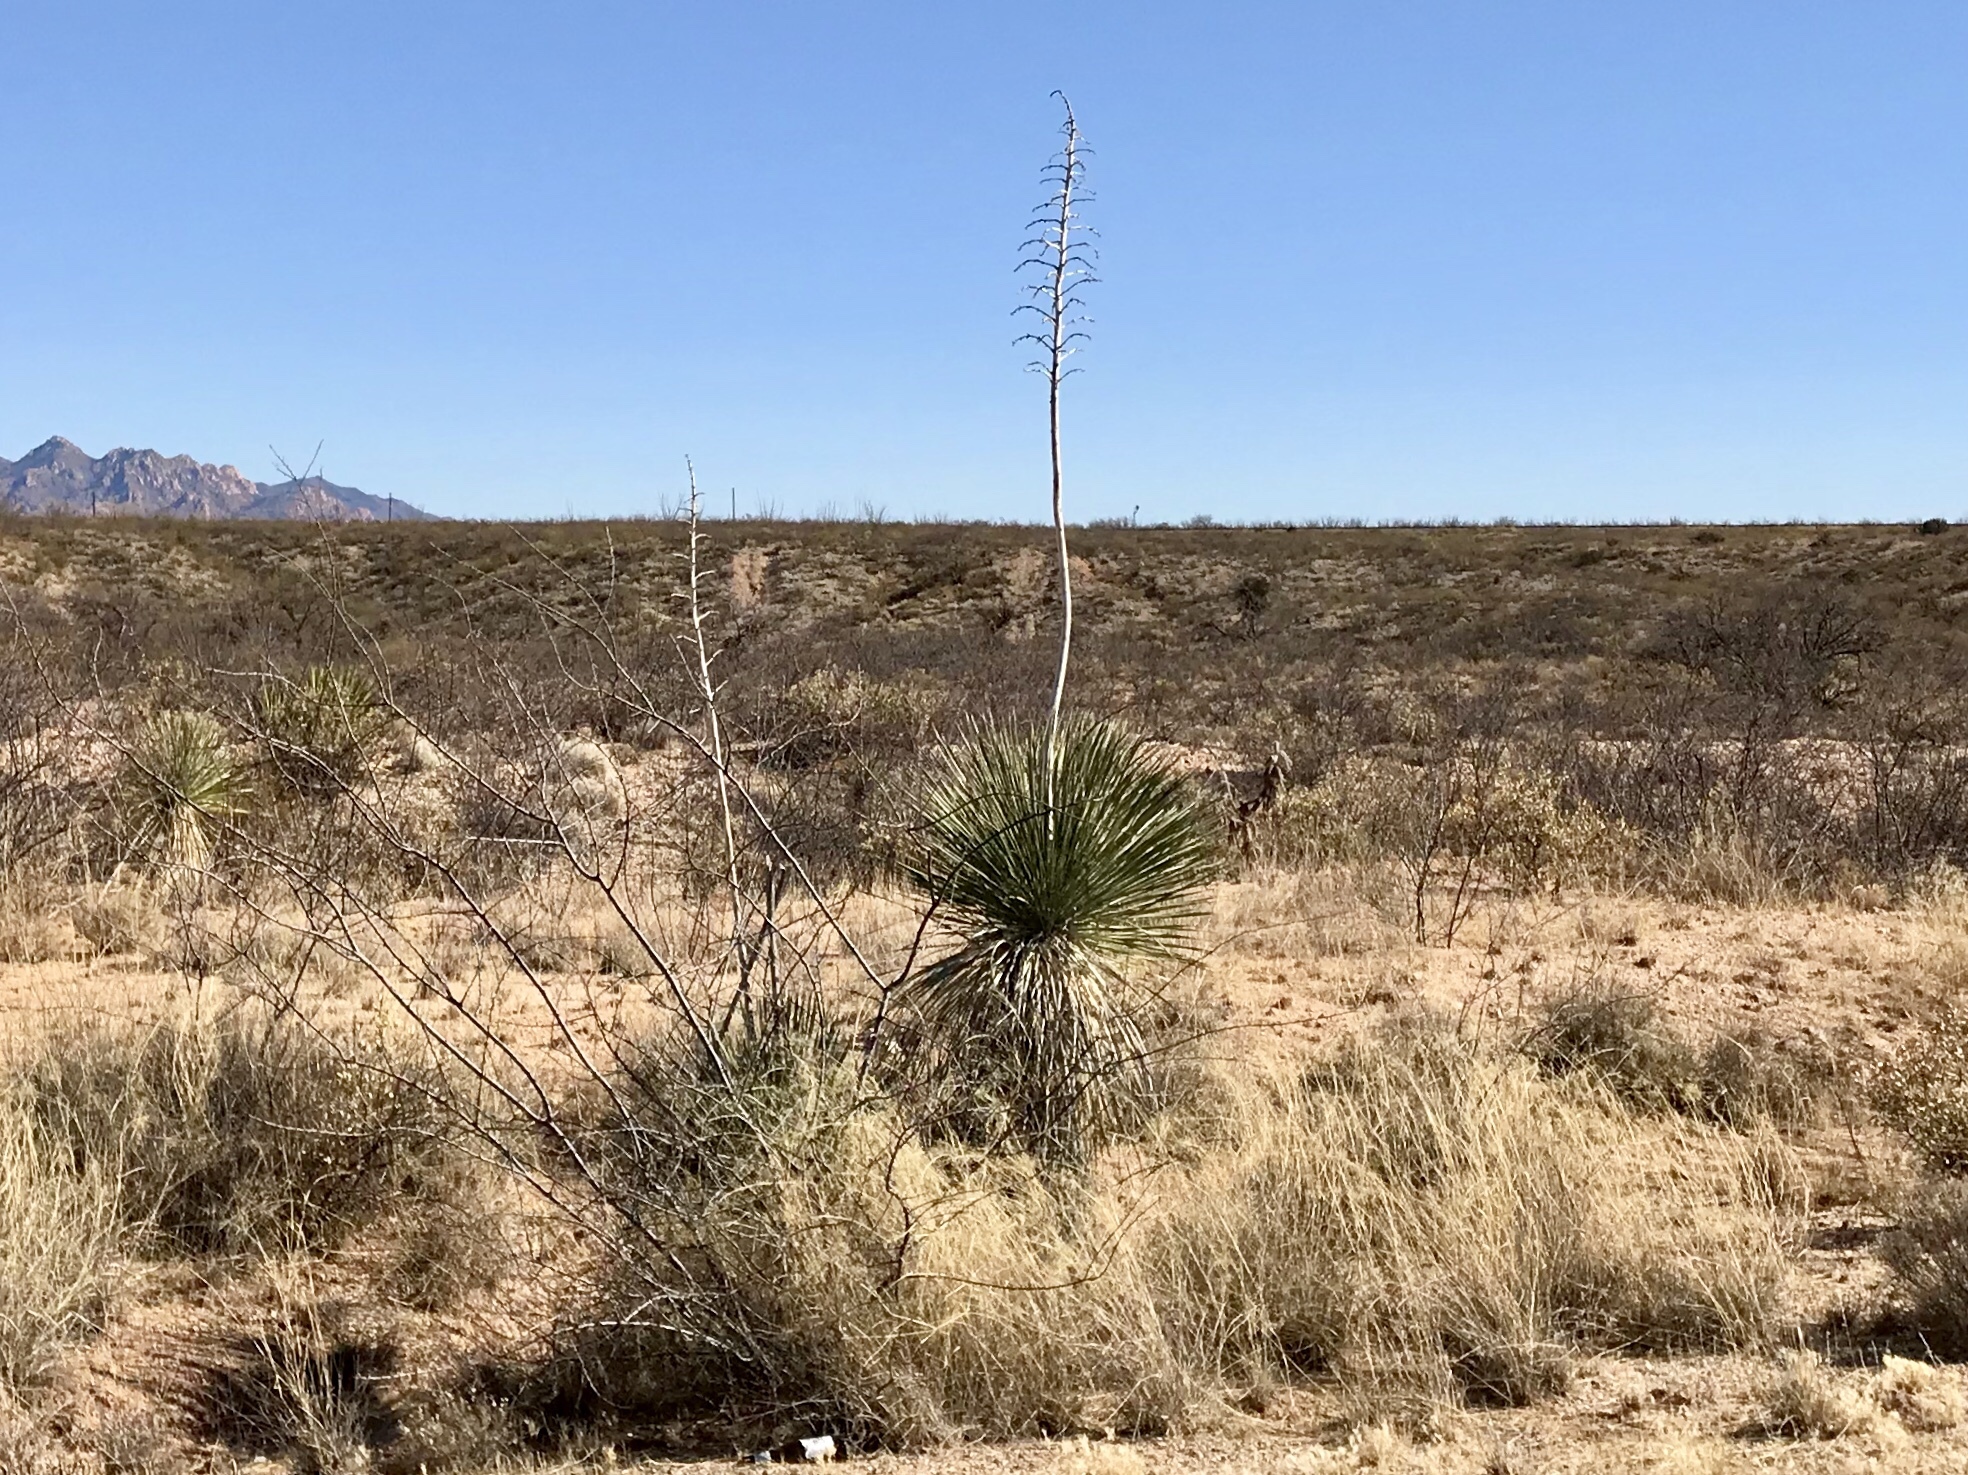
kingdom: Plantae
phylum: Tracheophyta
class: Liliopsida
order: Asparagales
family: Asparagaceae
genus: Yucca
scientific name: Yucca elata
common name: Palmella
